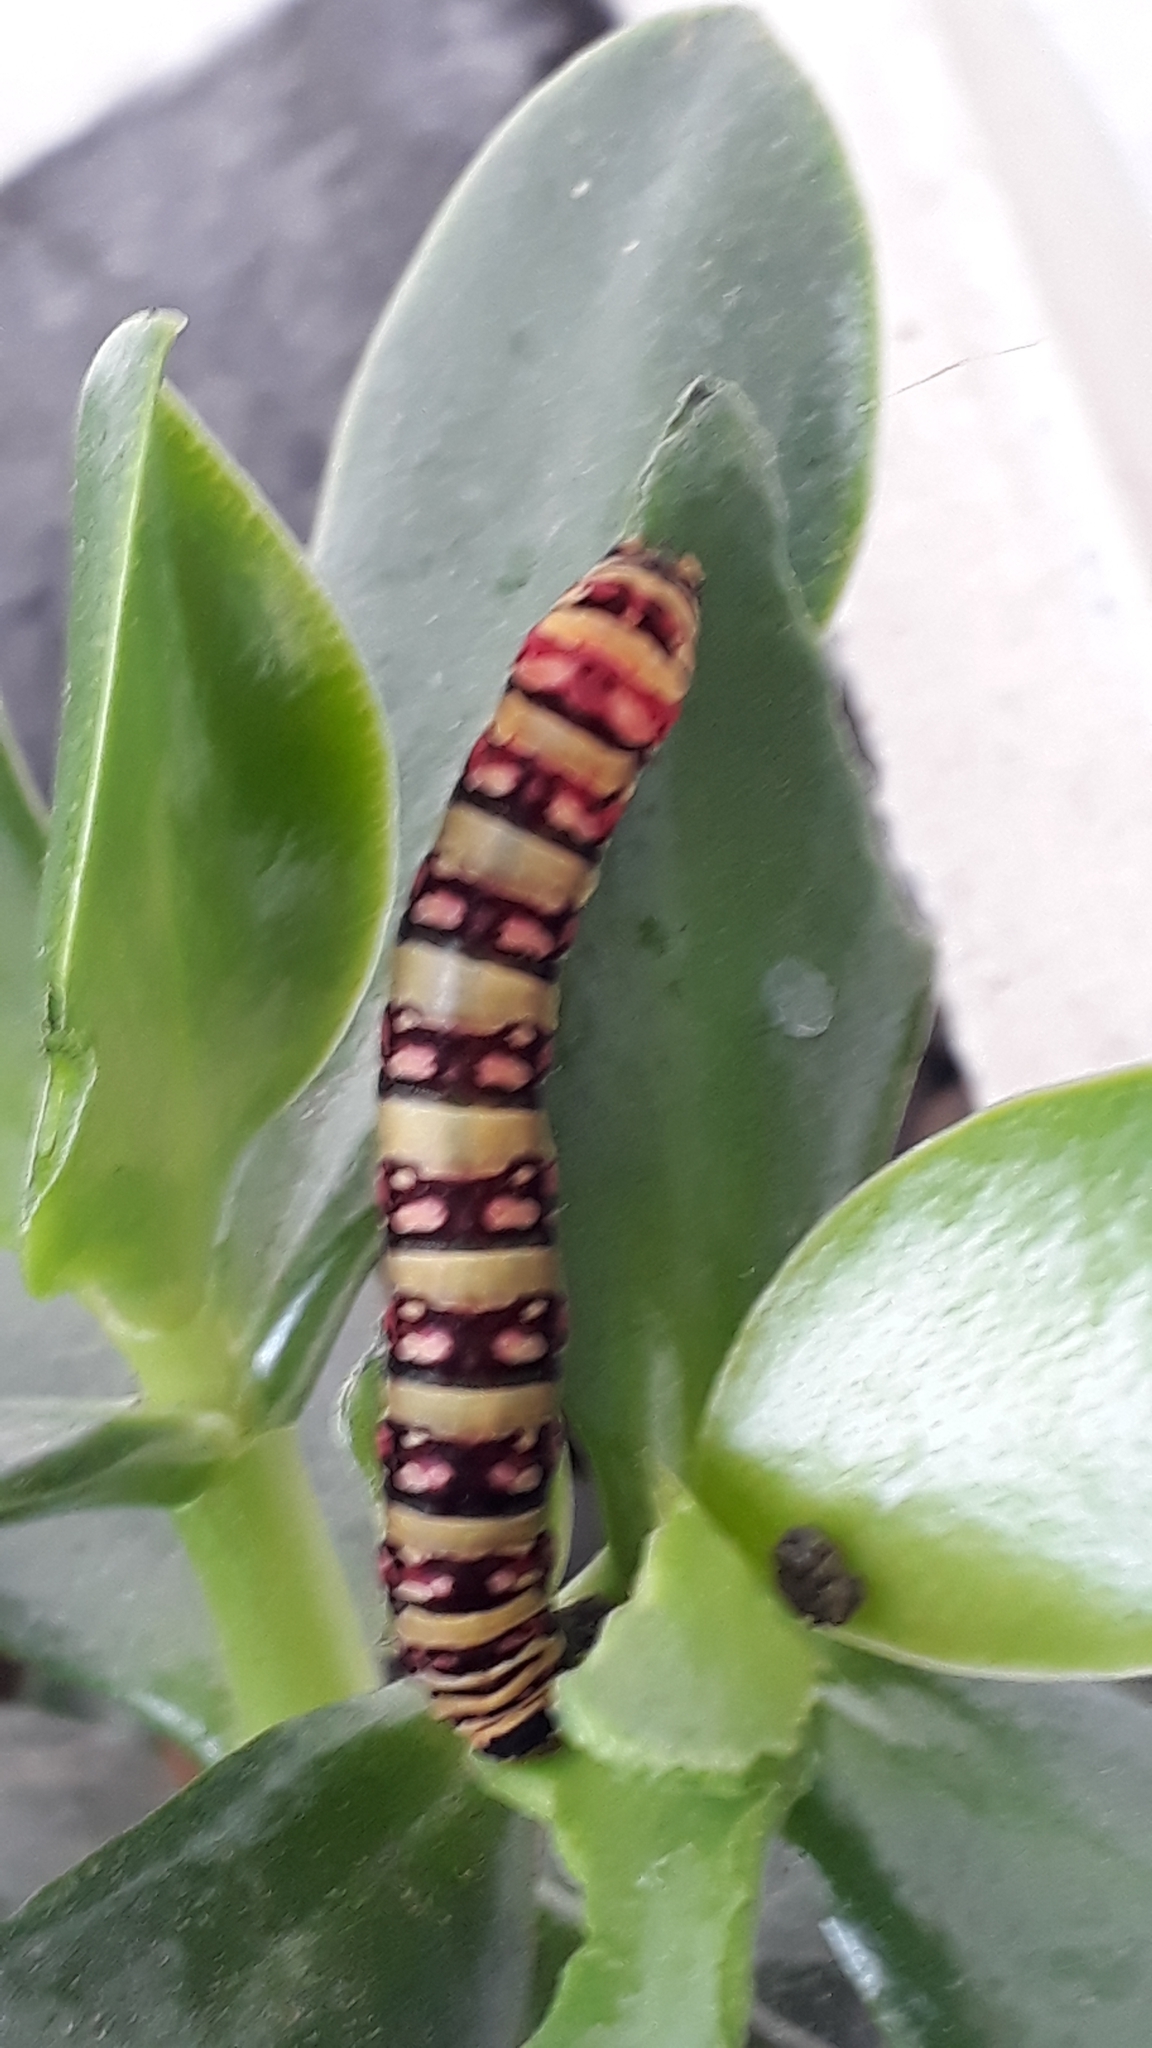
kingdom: Animalia
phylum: Arthropoda
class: Insecta
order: Lepidoptera
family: Noctuidae
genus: Klugeana
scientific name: Klugeana philoxalis
